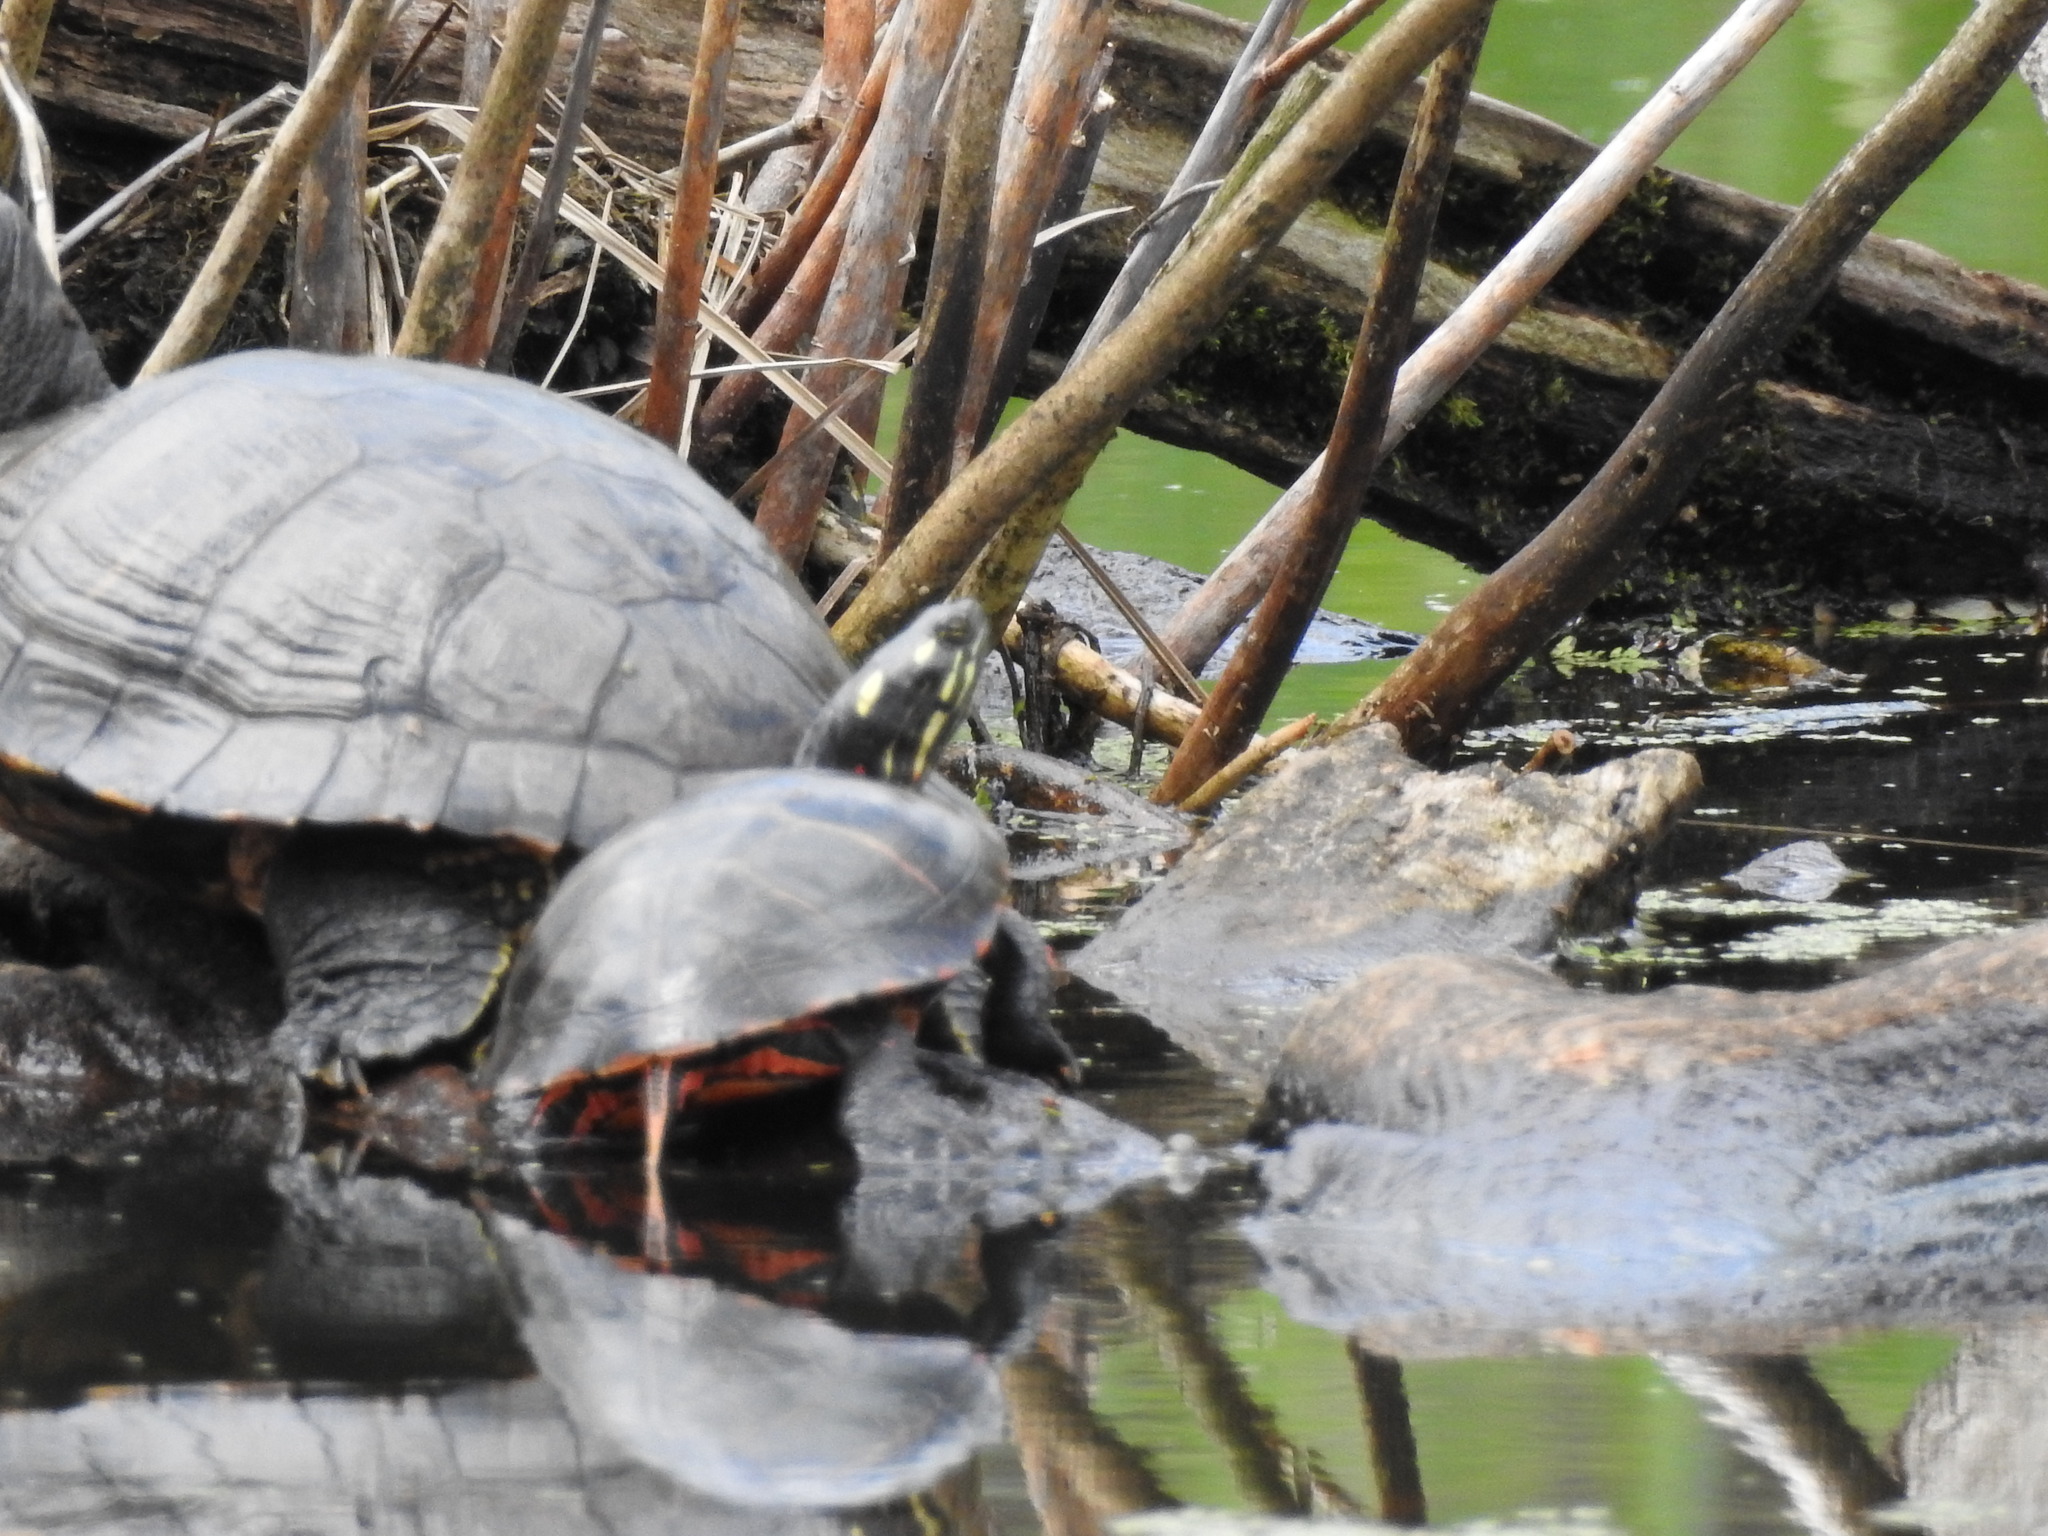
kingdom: Animalia
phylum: Chordata
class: Testudines
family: Emydidae
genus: Chrysemys
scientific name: Chrysemys picta
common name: Painted turtle
